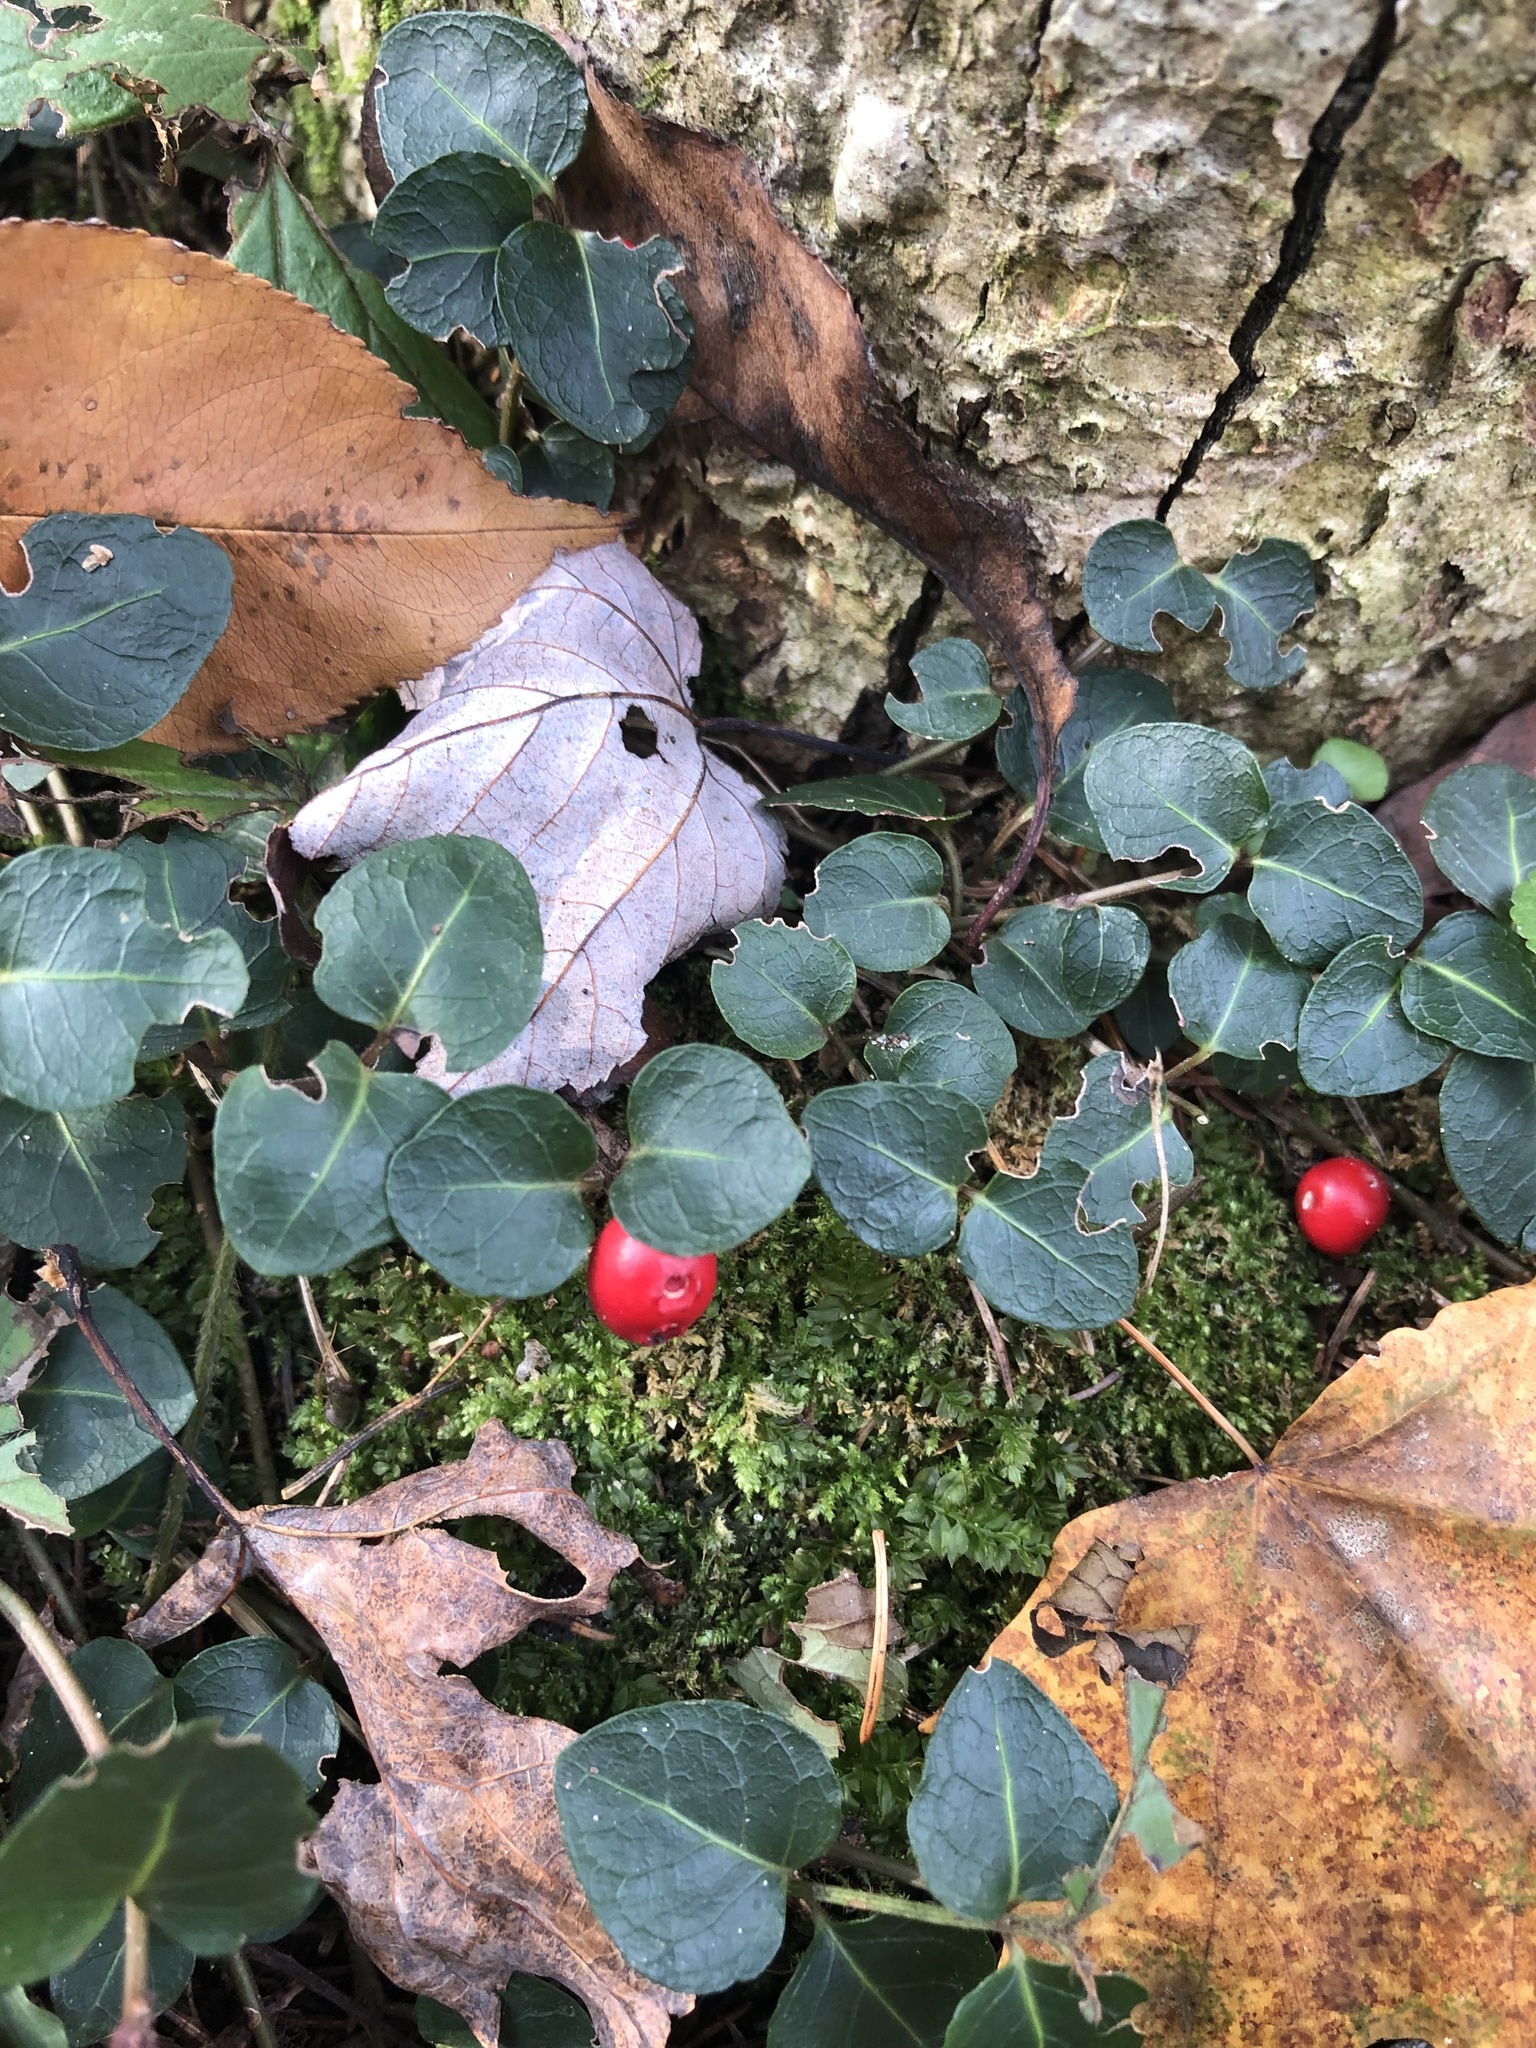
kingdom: Plantae
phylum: Tracheophyta
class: Magnoliopsida
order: Gentianales
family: Rubiaceae
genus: Mitchella
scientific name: Mitchella repens
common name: Partridge-berry
